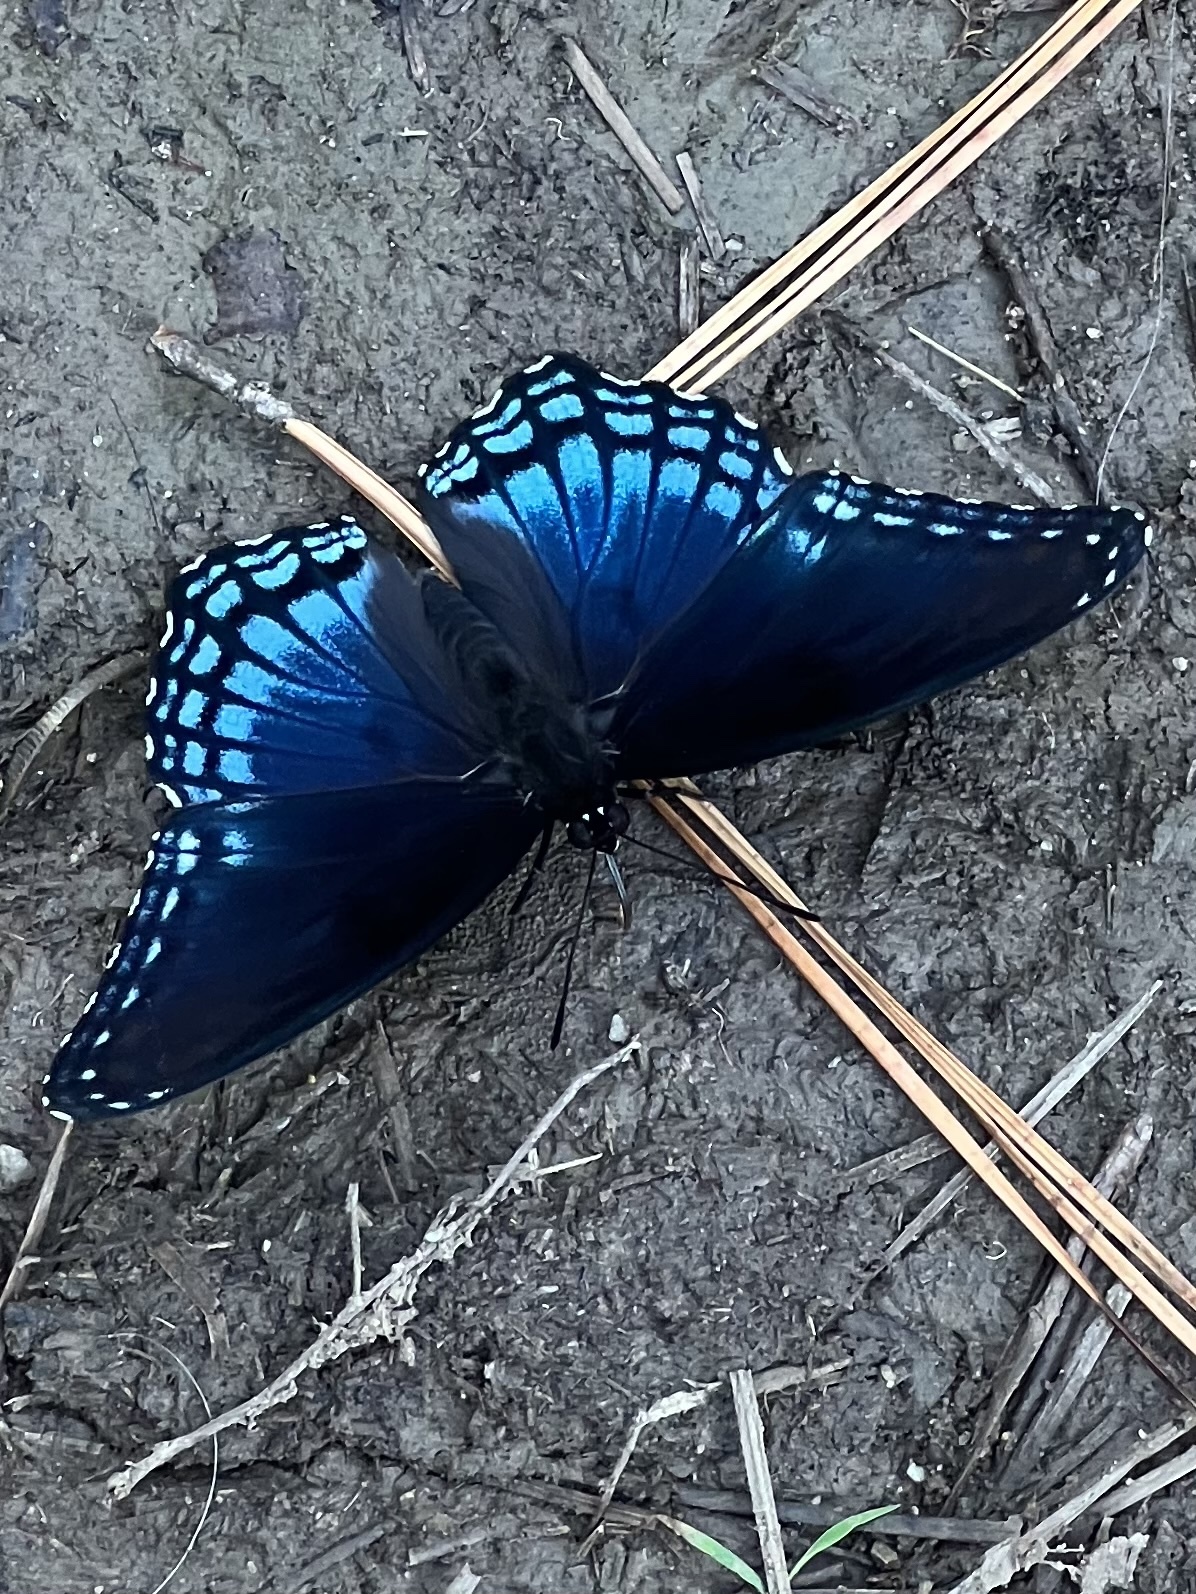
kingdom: Animalia
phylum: Arthropoda
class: Insecta
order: Lepidoptera
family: Nymphalidae
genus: Limenitis
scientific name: Limenitis astyanax
